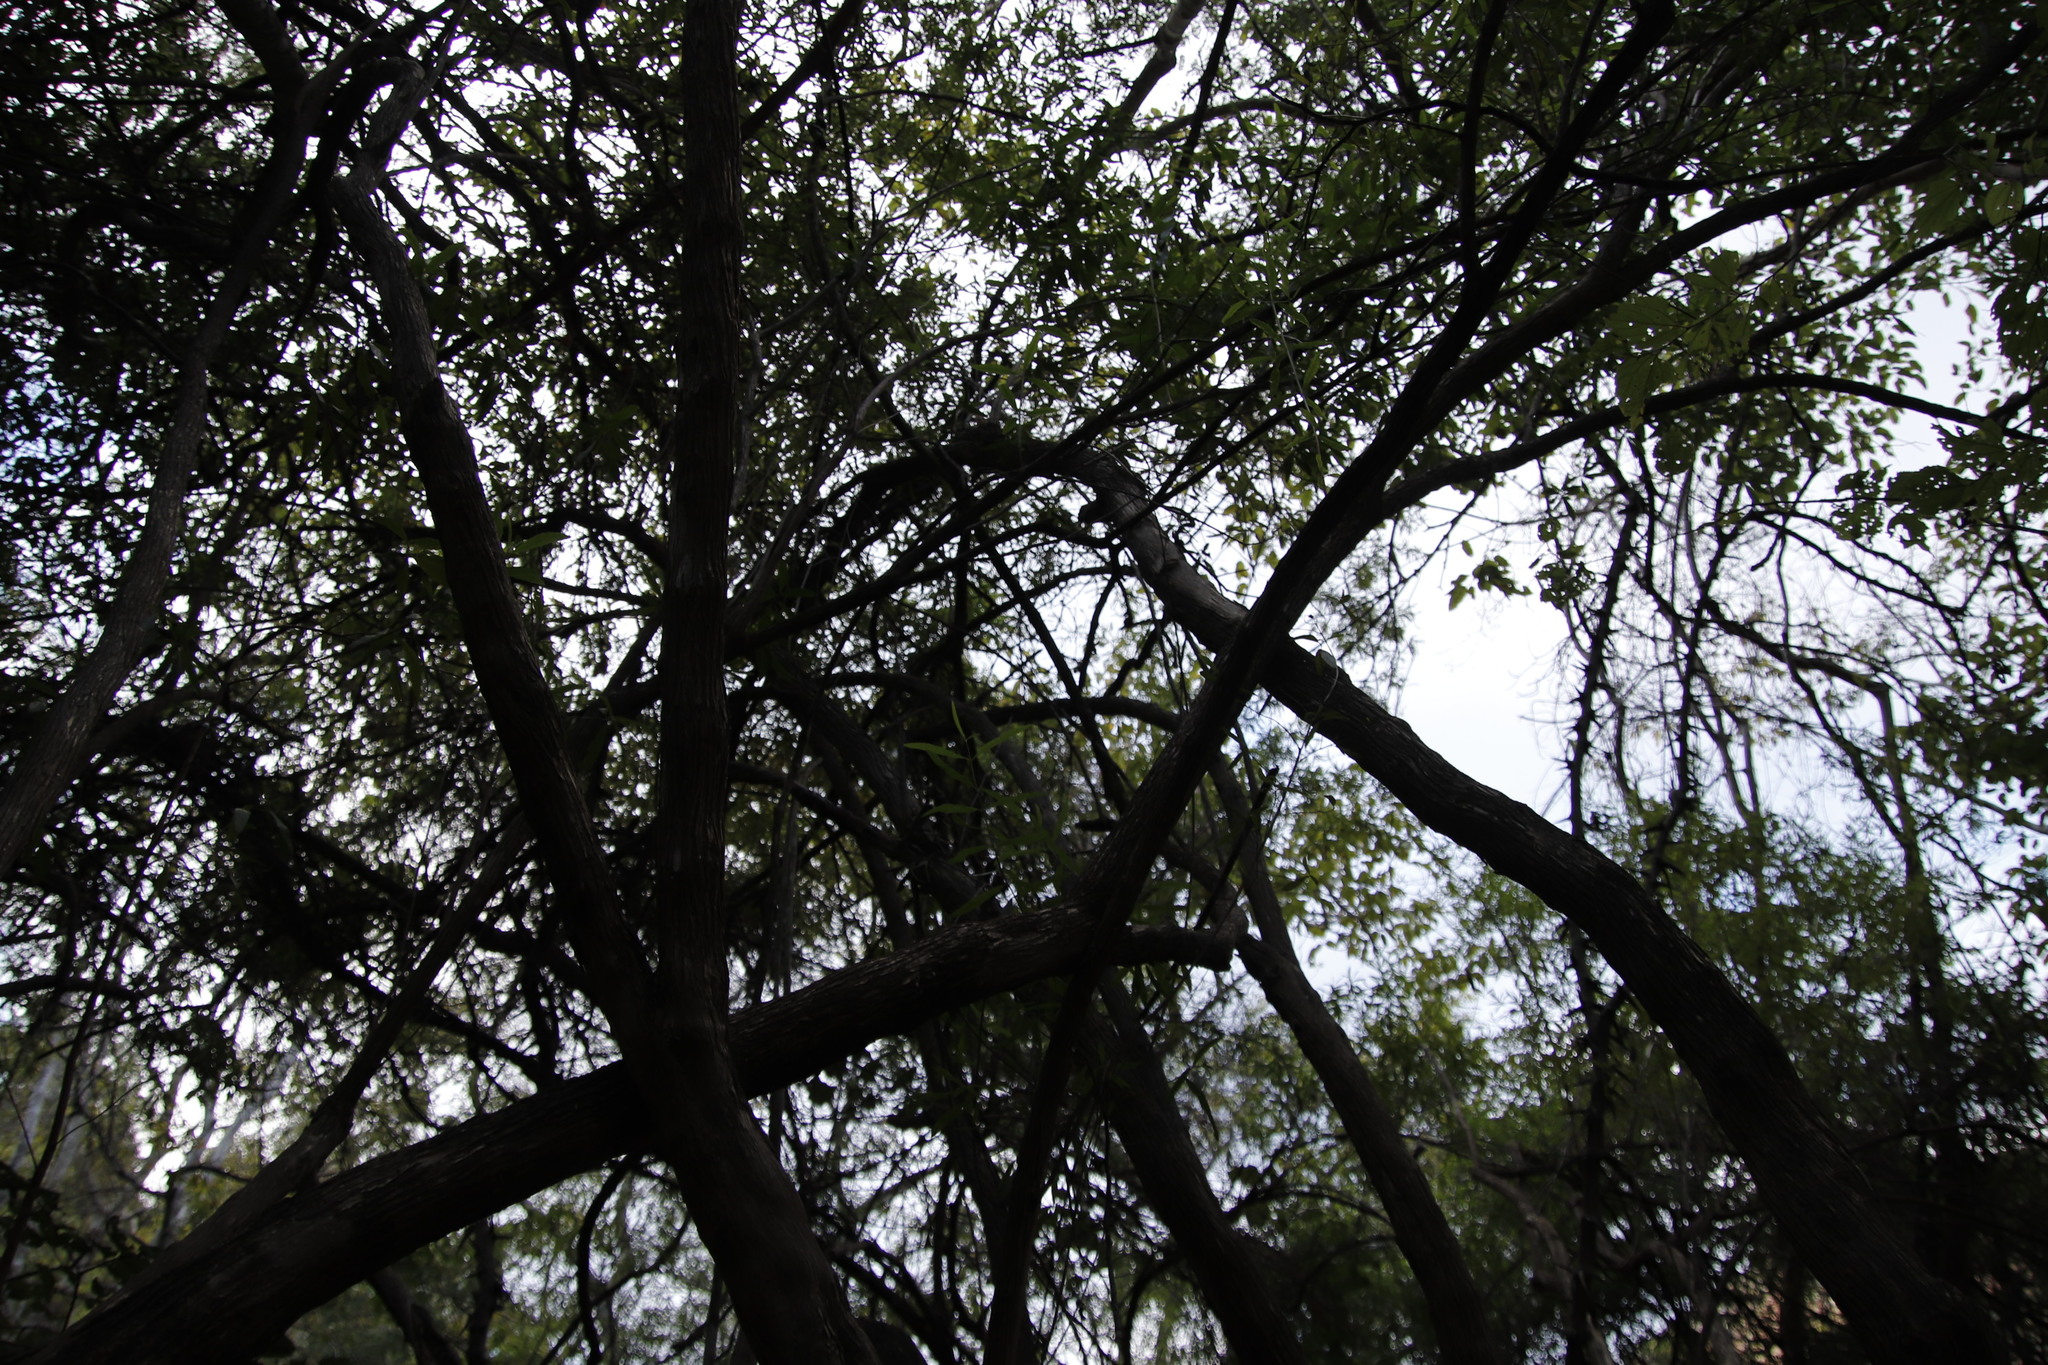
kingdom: Plantae
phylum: Tracheophyta
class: Magnoliopsida
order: Lamiales
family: Stilbaceae
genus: Nuxia
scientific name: Nuxia oppositifolia
